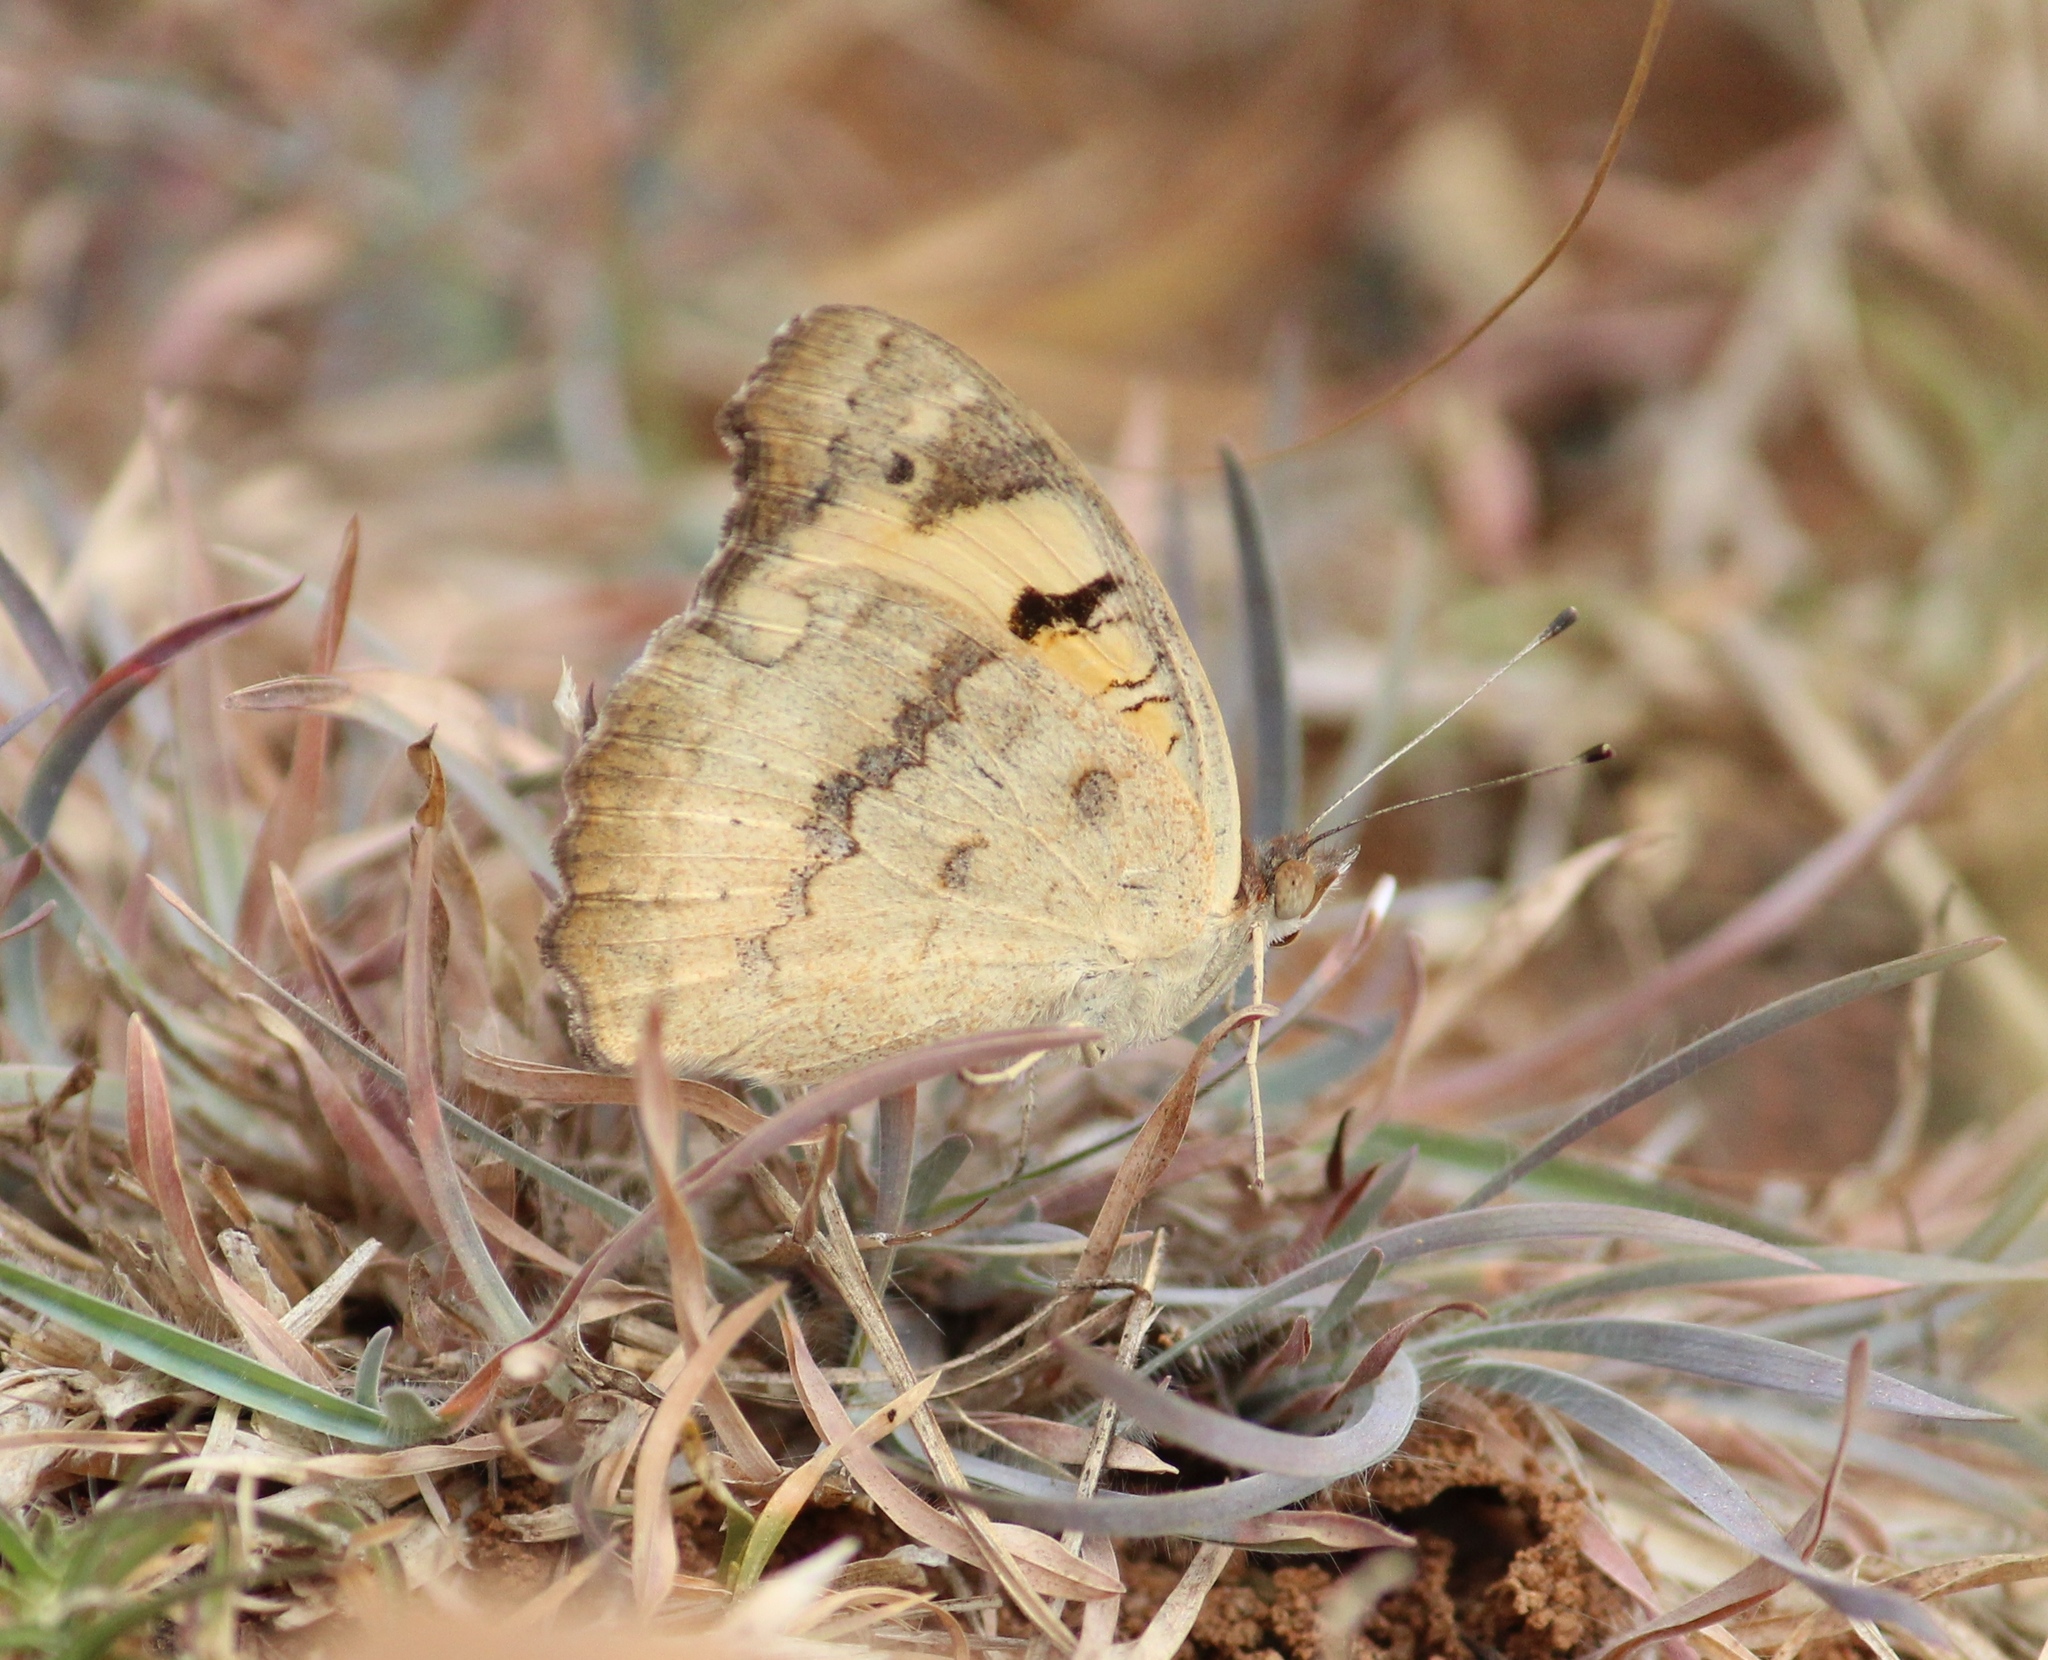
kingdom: Animalia
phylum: Arthropoda
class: Insecta
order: Lepidoptera
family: Nymphalidae
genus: Junonia
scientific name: Junonia hierta
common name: Yellow pansy
